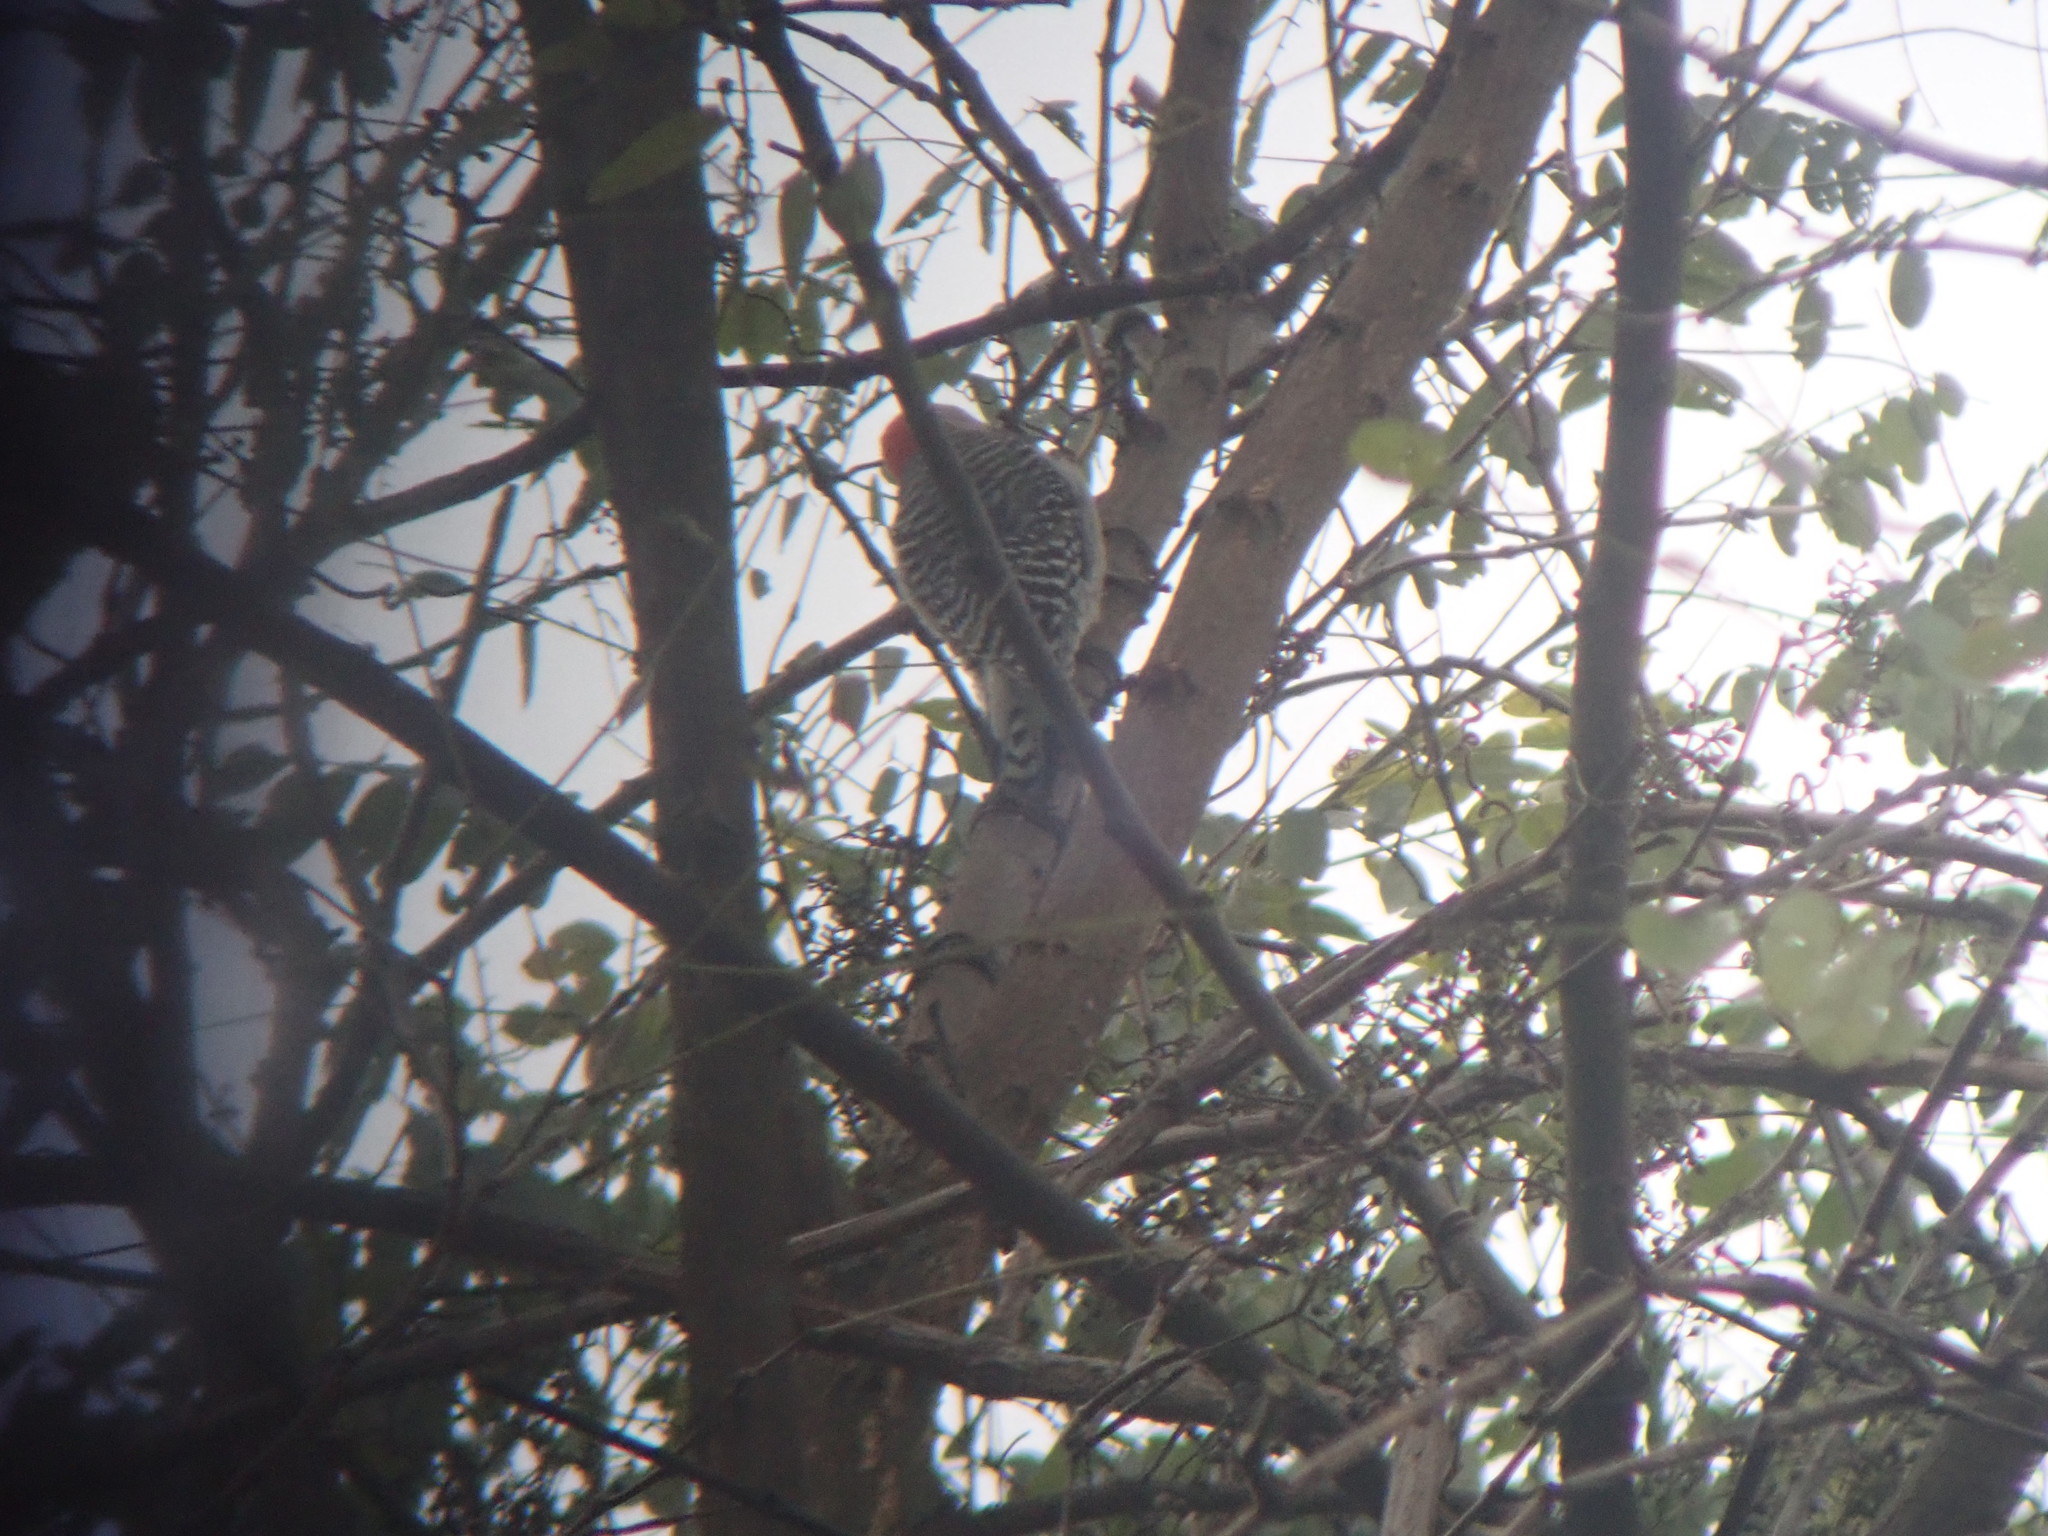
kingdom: Animalia
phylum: Chordata
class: Aves
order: Piciformes
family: Picidae
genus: Melanerpes
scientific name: Melanerpes carolinus
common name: Red-bellied woodpecker
